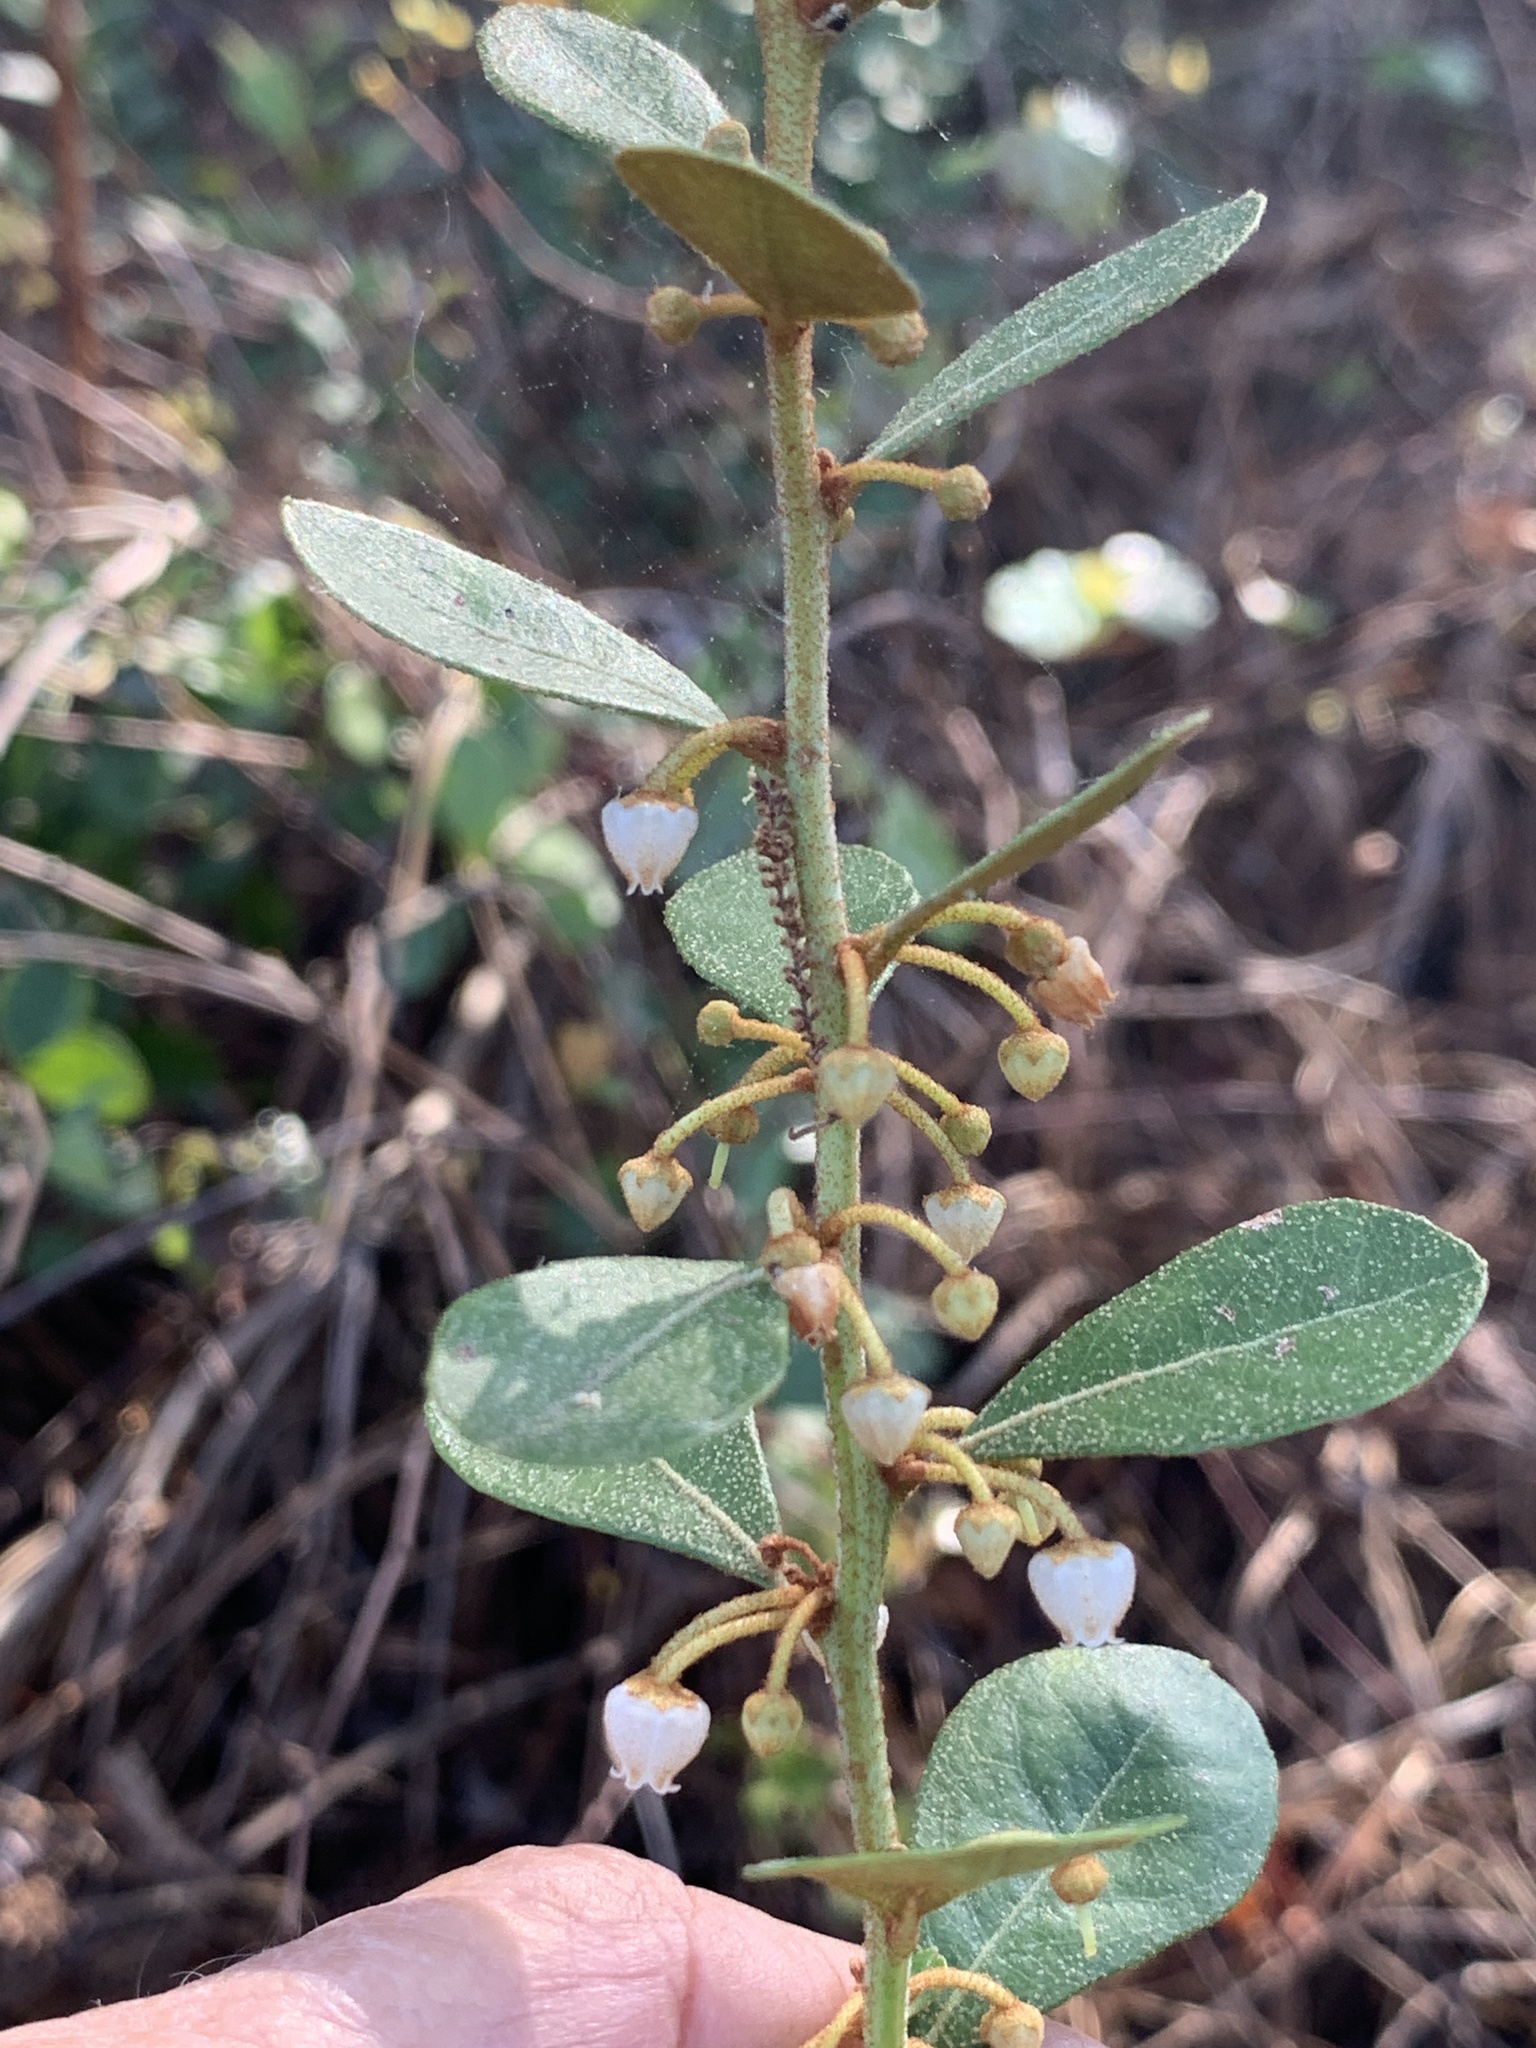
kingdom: Plantae
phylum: Tracheophyta
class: Magnoliopsida
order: Ericales
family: Ericaceae
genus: Lyonia
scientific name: Lyonia fruticosa
